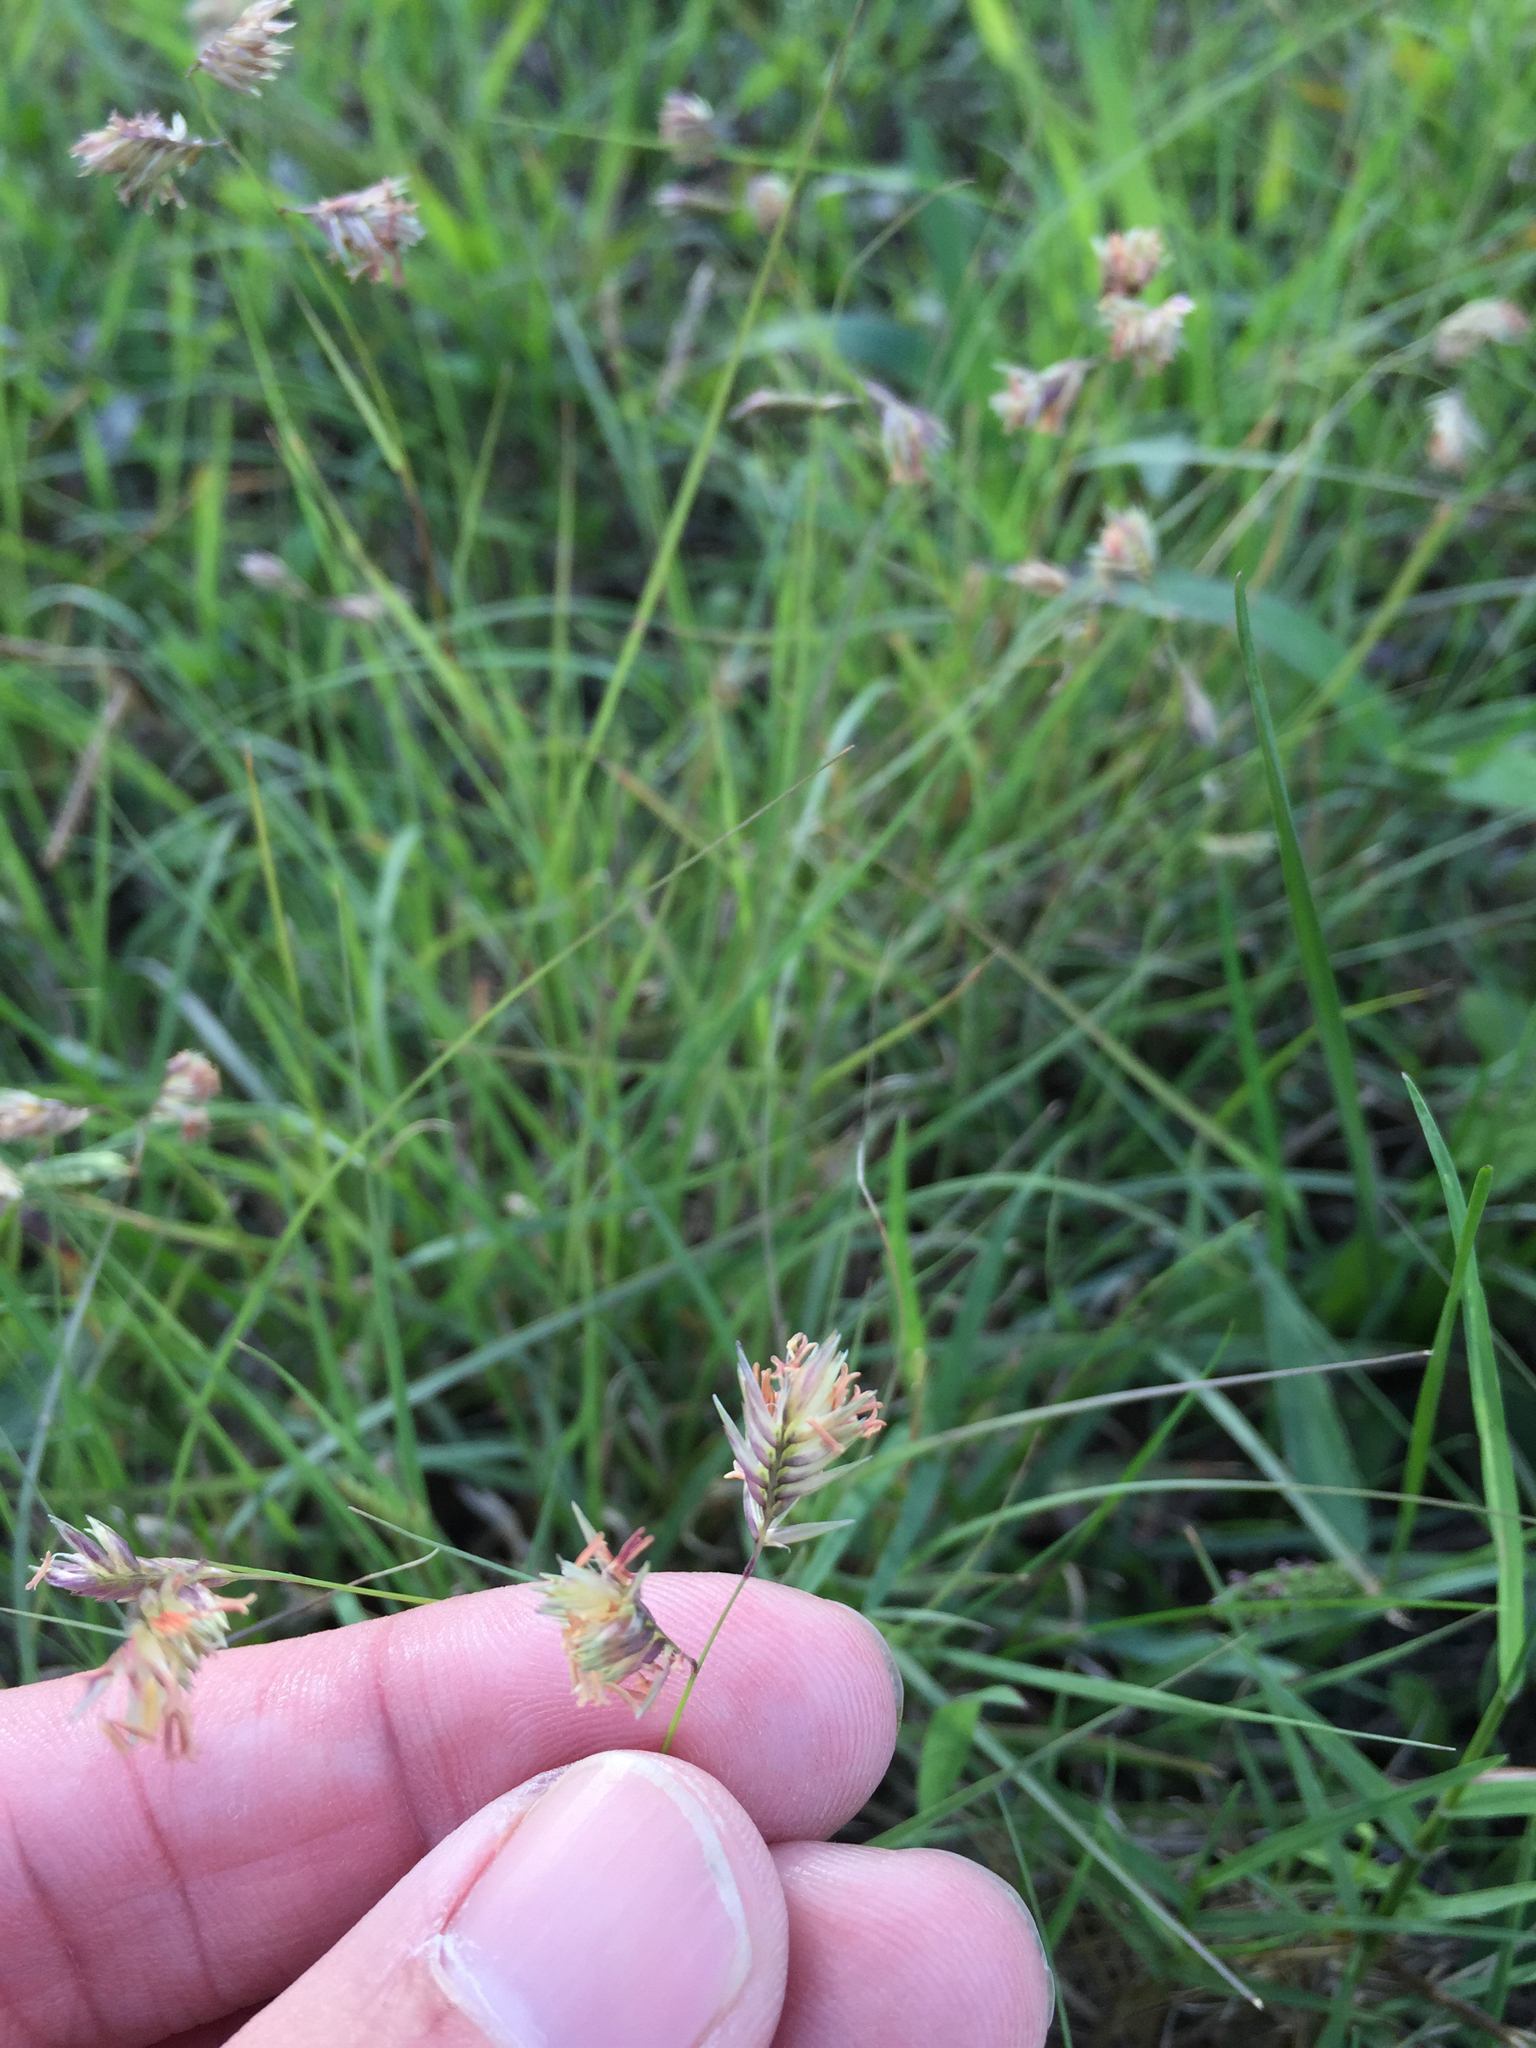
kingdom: Plantae
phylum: Tracheophyta
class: Liliopsida
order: Poales
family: Poaceae
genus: Bouteloua
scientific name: Bouteloua dactyloides
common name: Buffalo grass
